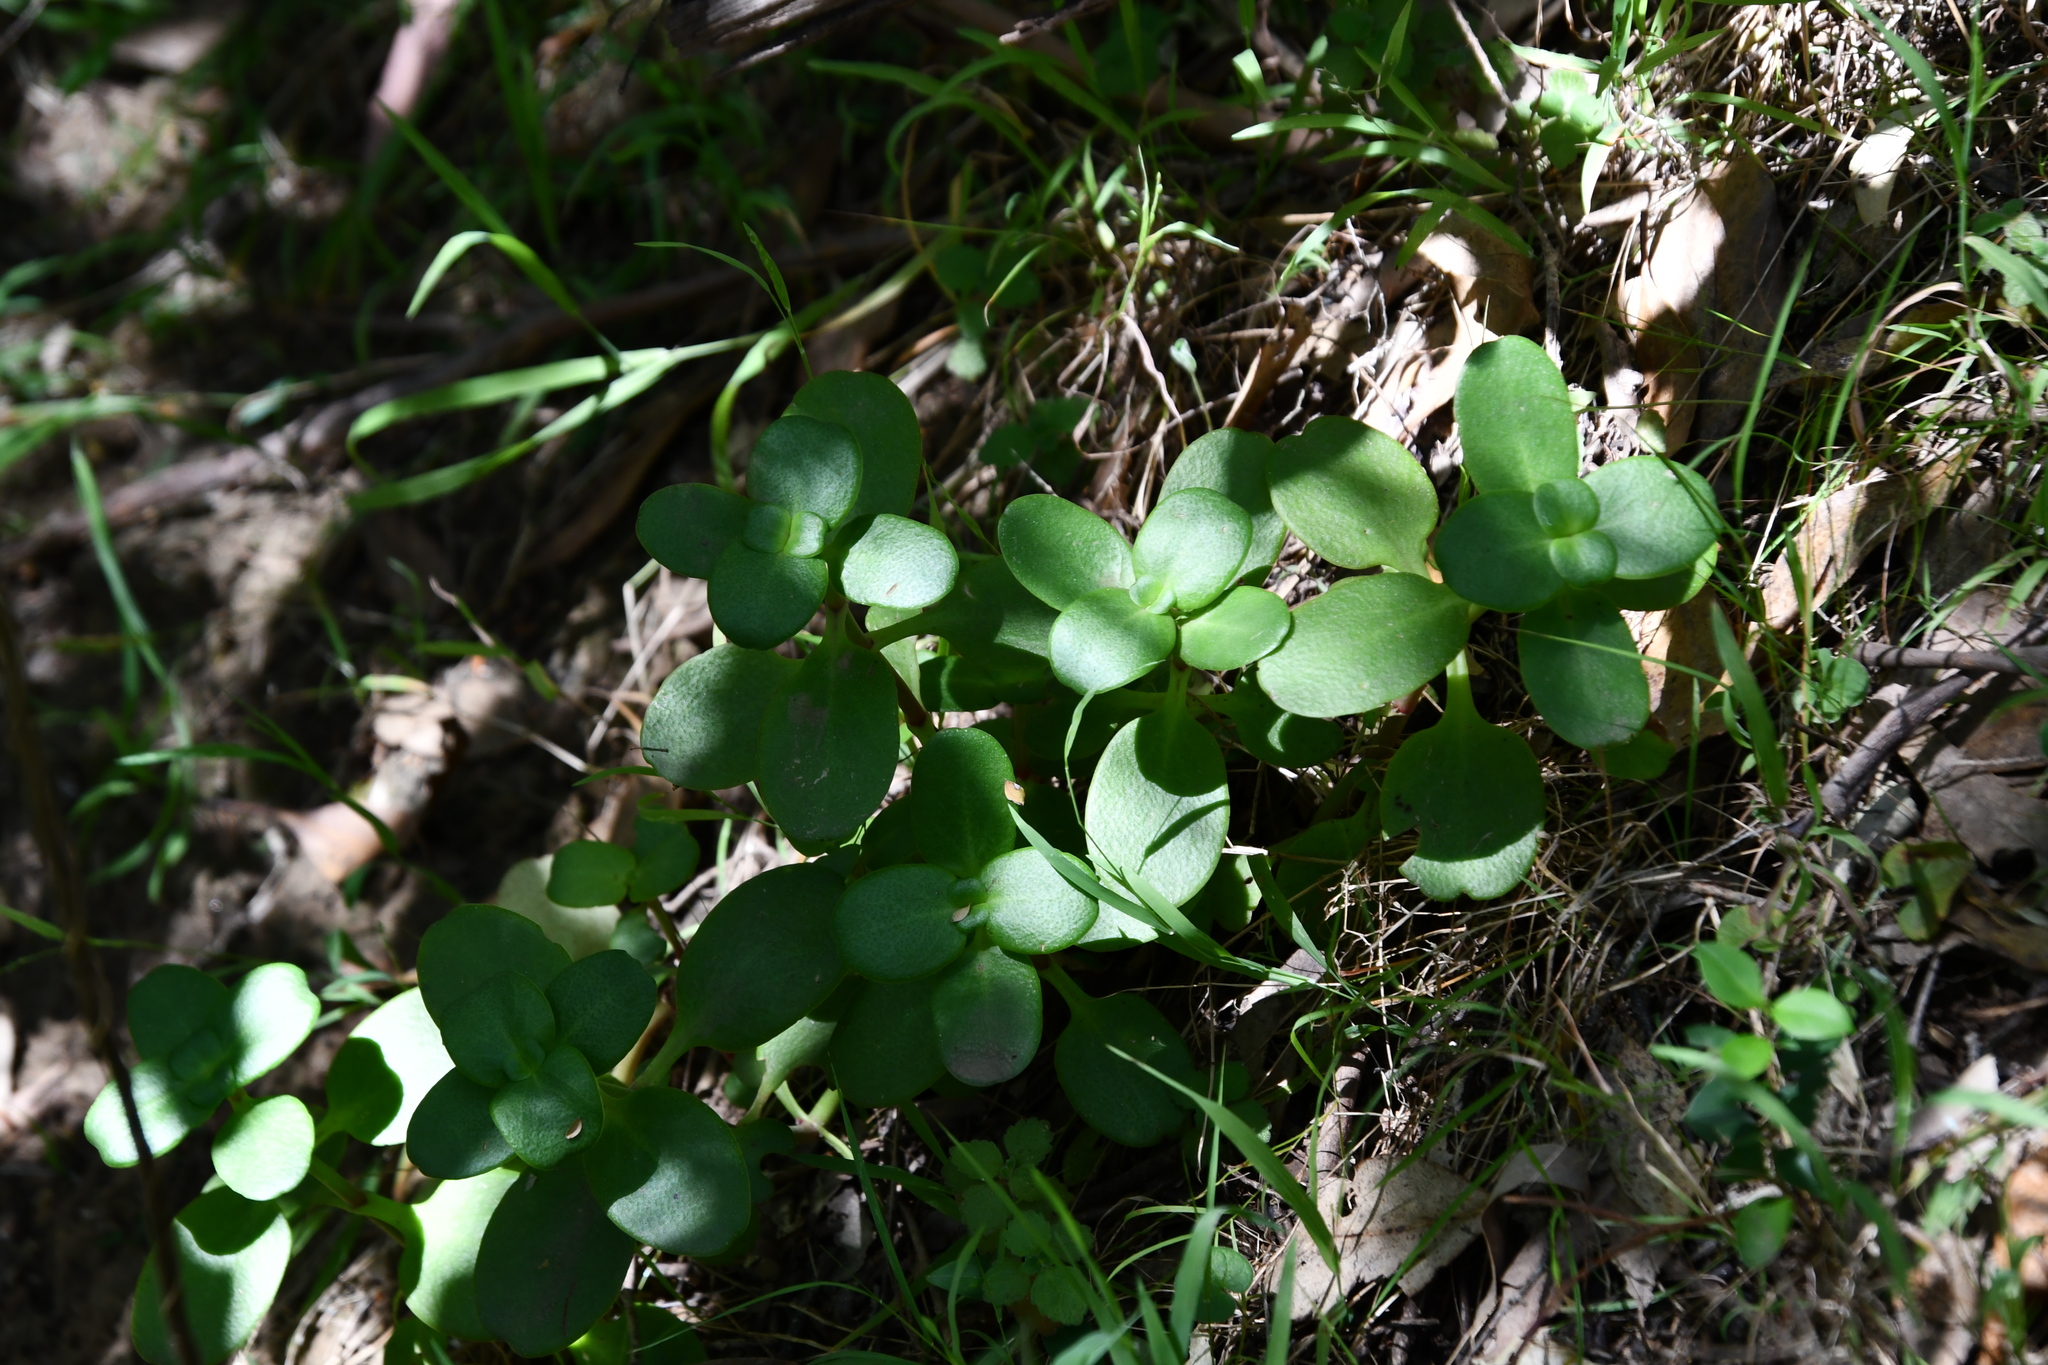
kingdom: Plantae
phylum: Tracheophyta
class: Magnoliopsida
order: Saxifragales
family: Crassulaceae
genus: Crassula
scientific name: Crassula multicava
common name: Cape province pygmyweed
